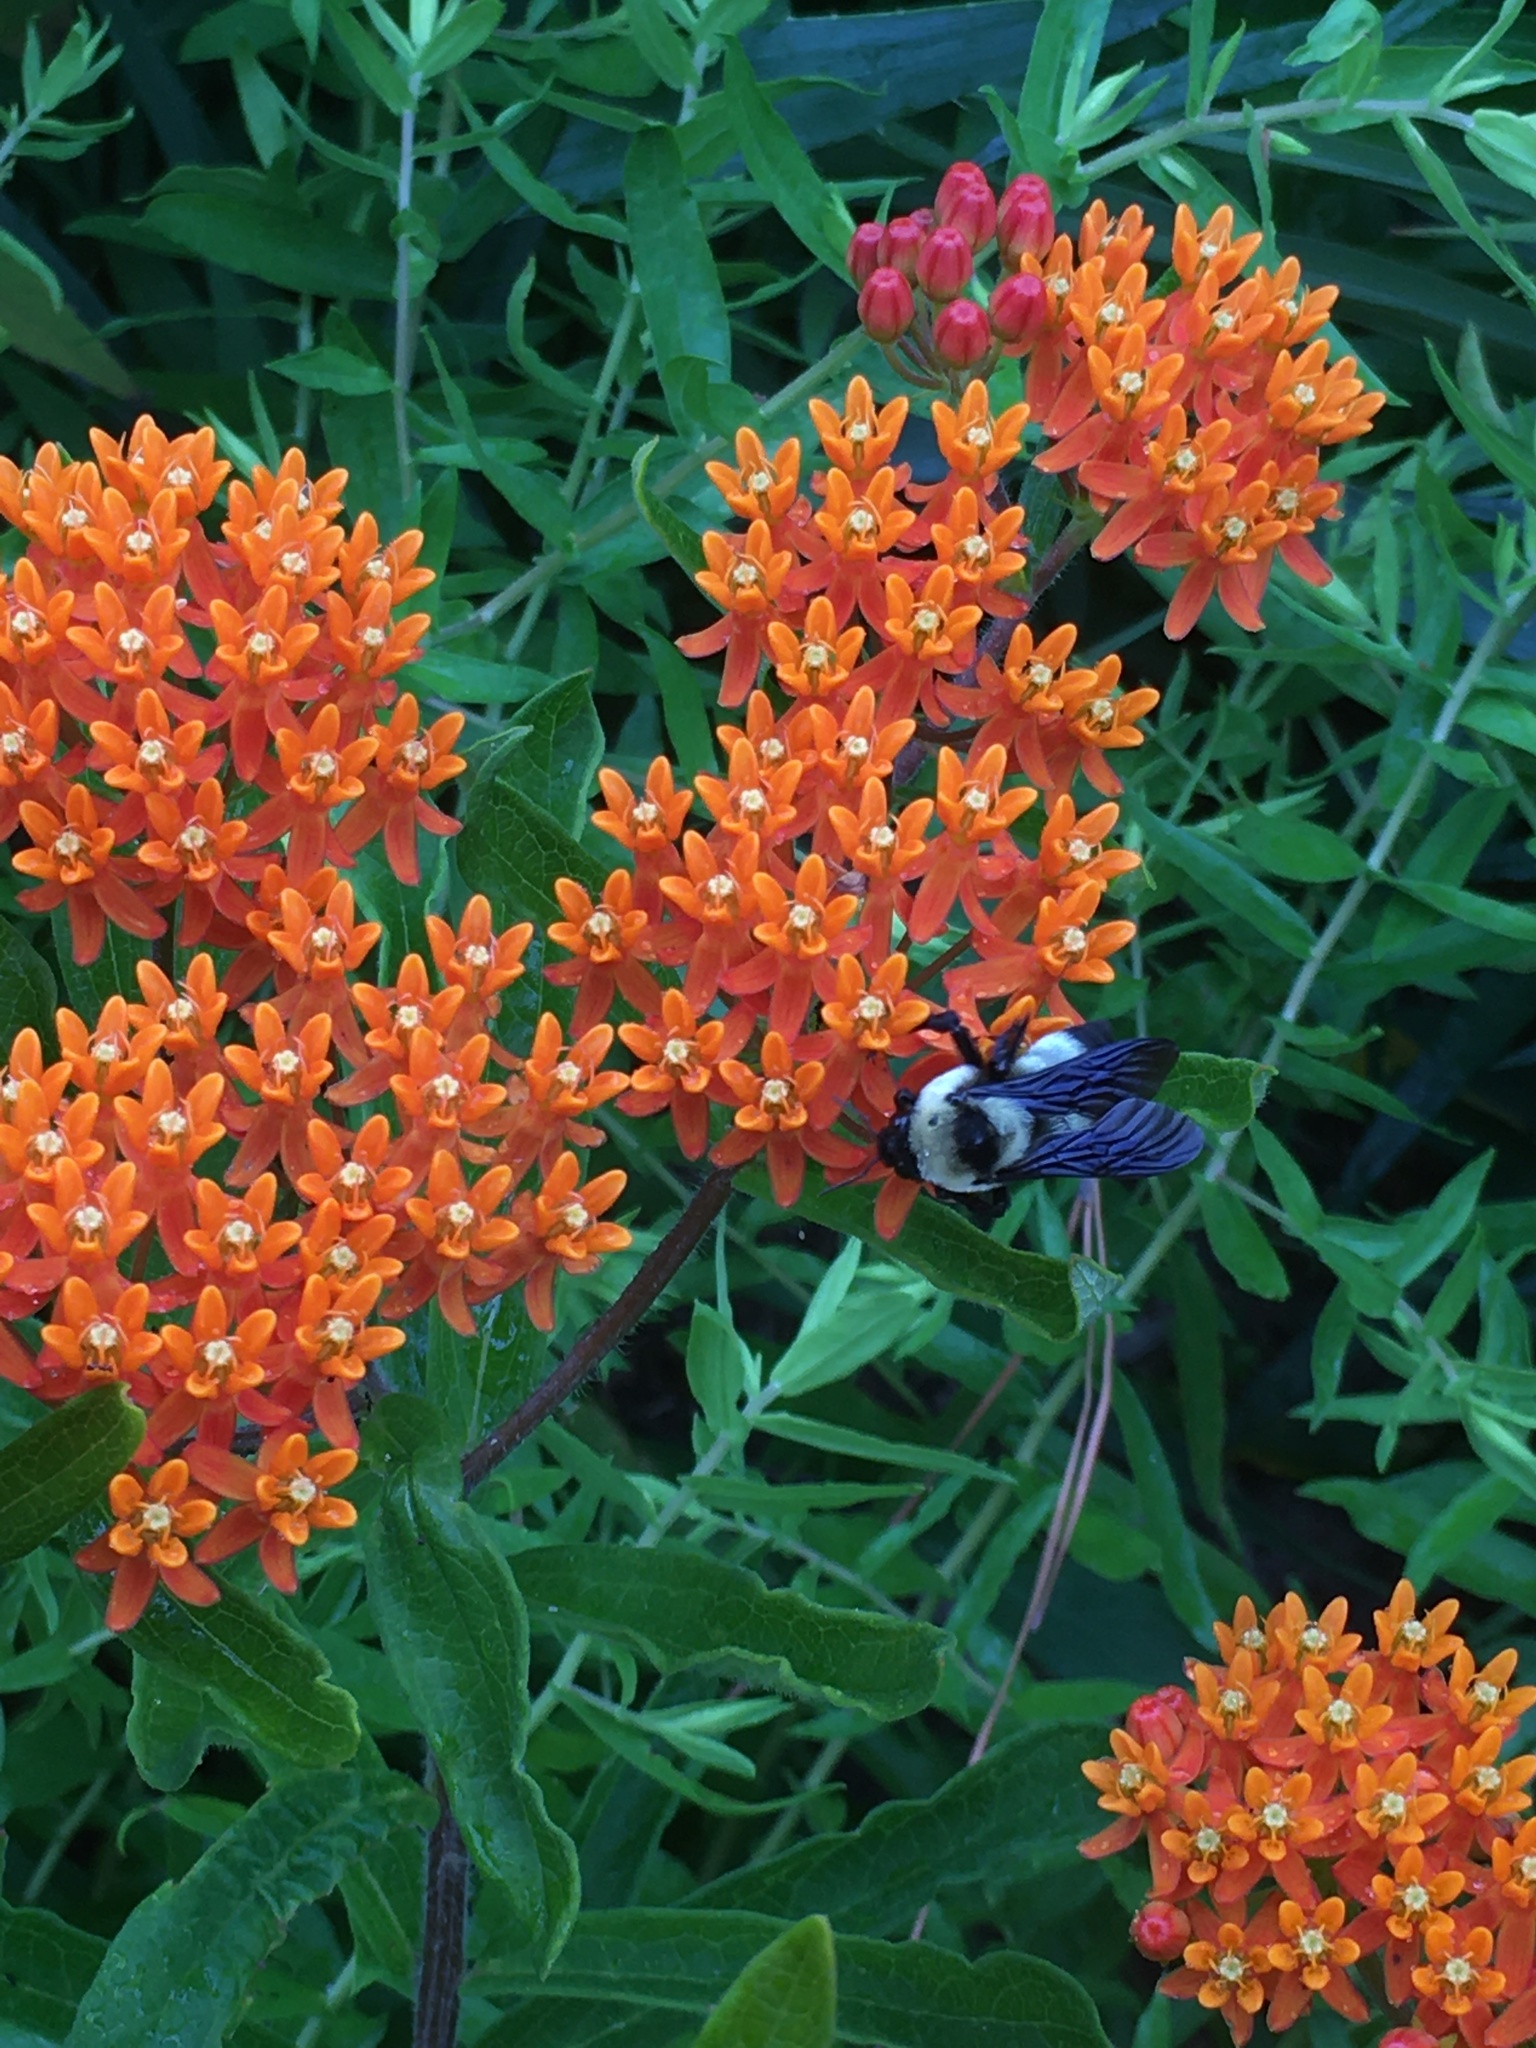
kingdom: Animalia
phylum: Arthropoda
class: Insecta
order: Hymenoptera
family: Apidae
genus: Bombus
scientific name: Bombus fraternus
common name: Southern plains bumble bee
